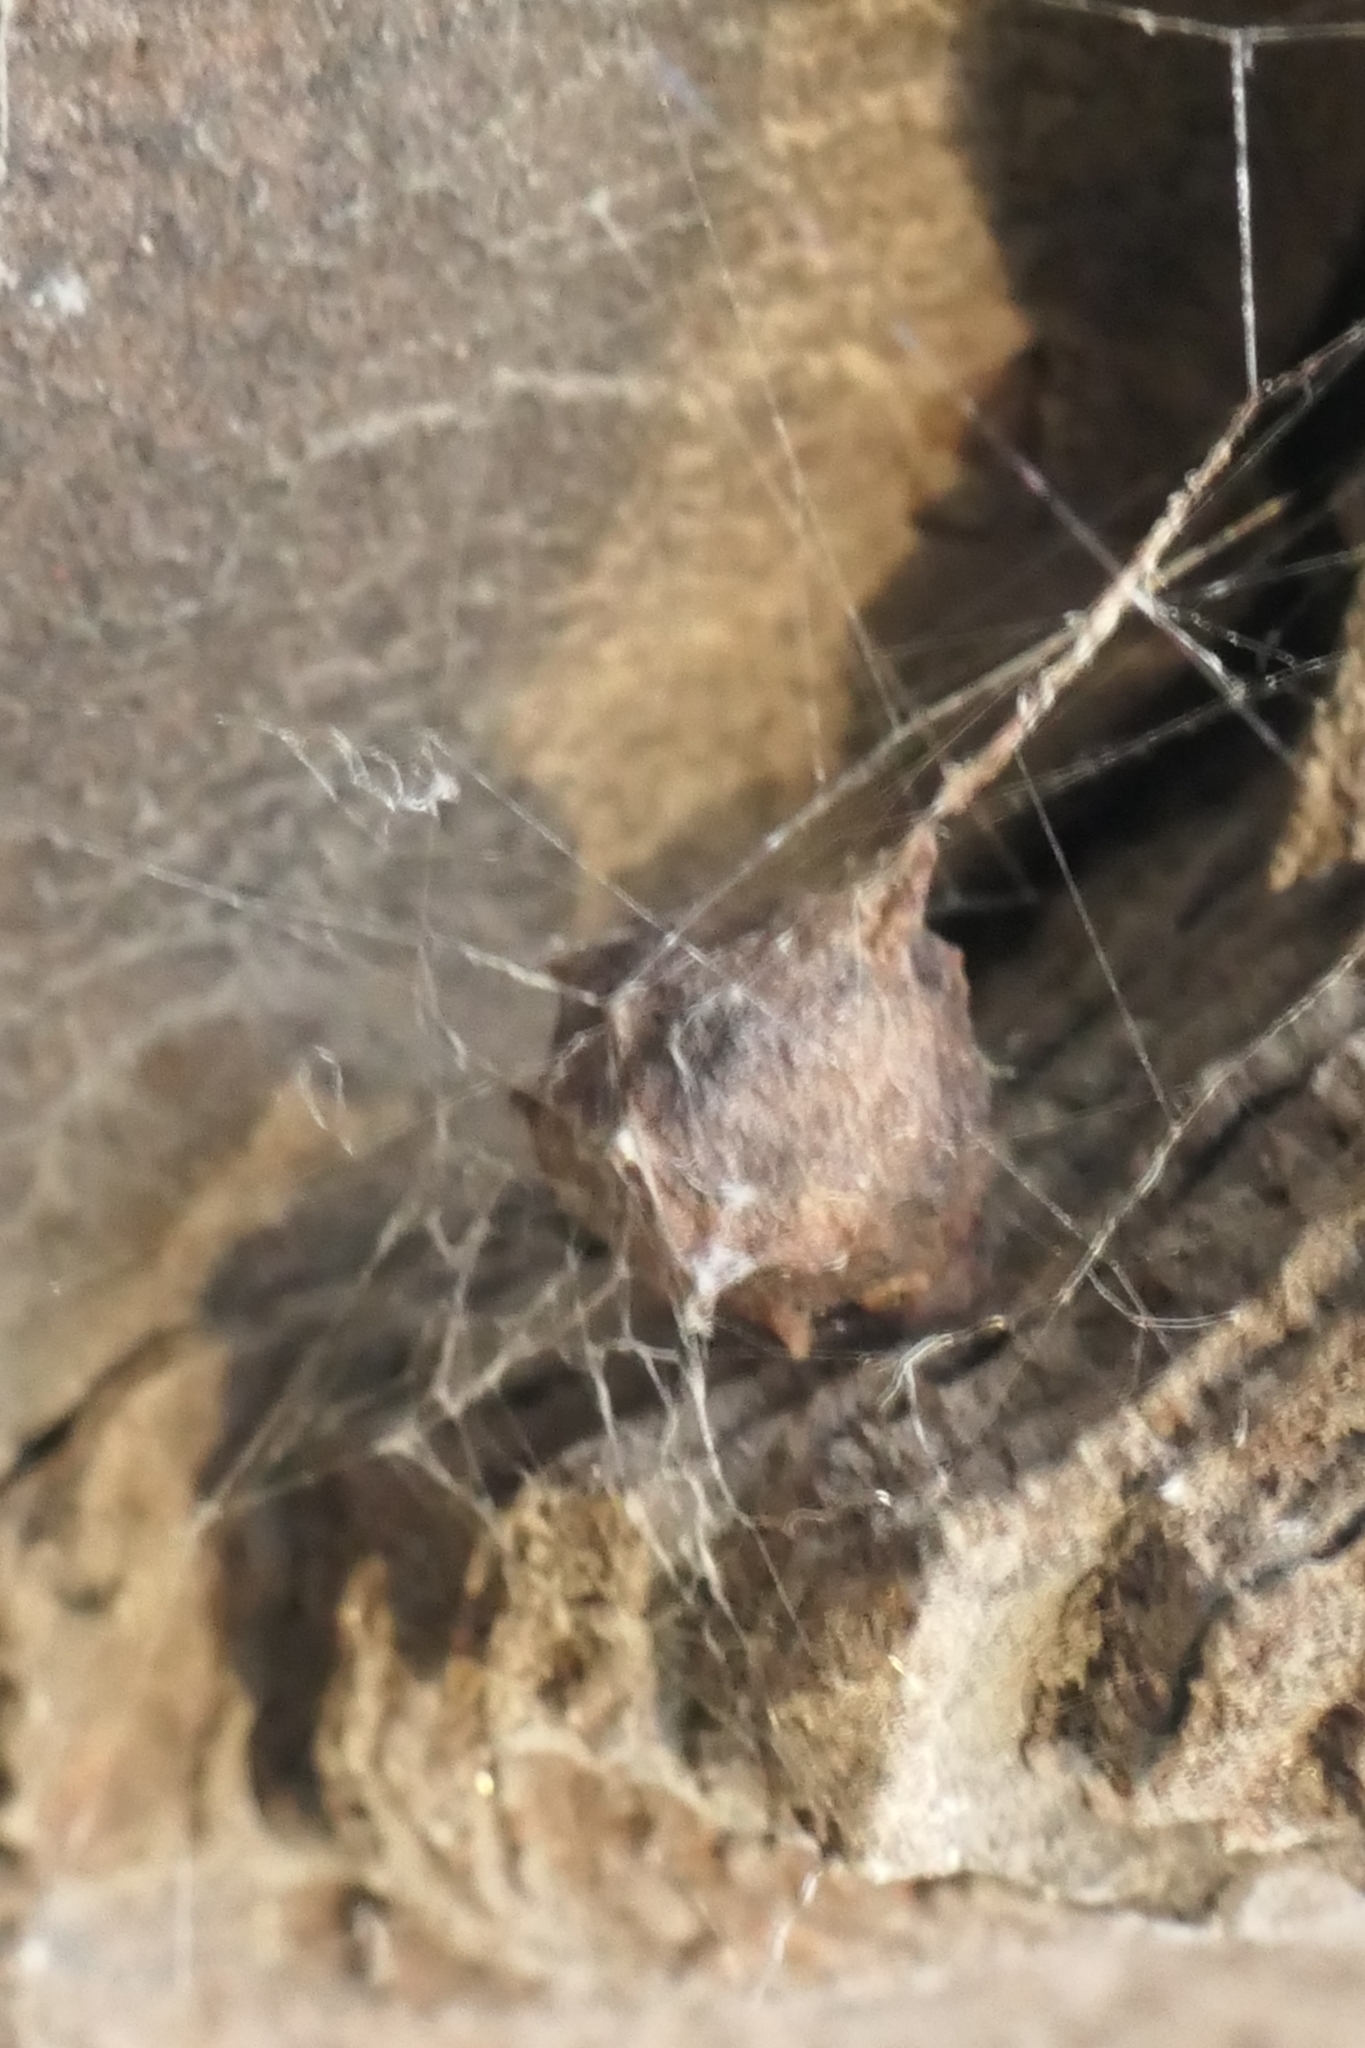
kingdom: Animalia
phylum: Arthropoda
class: Arachnida
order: Araneae
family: Araneidae
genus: Celaenia
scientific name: Celaenia olivacea
